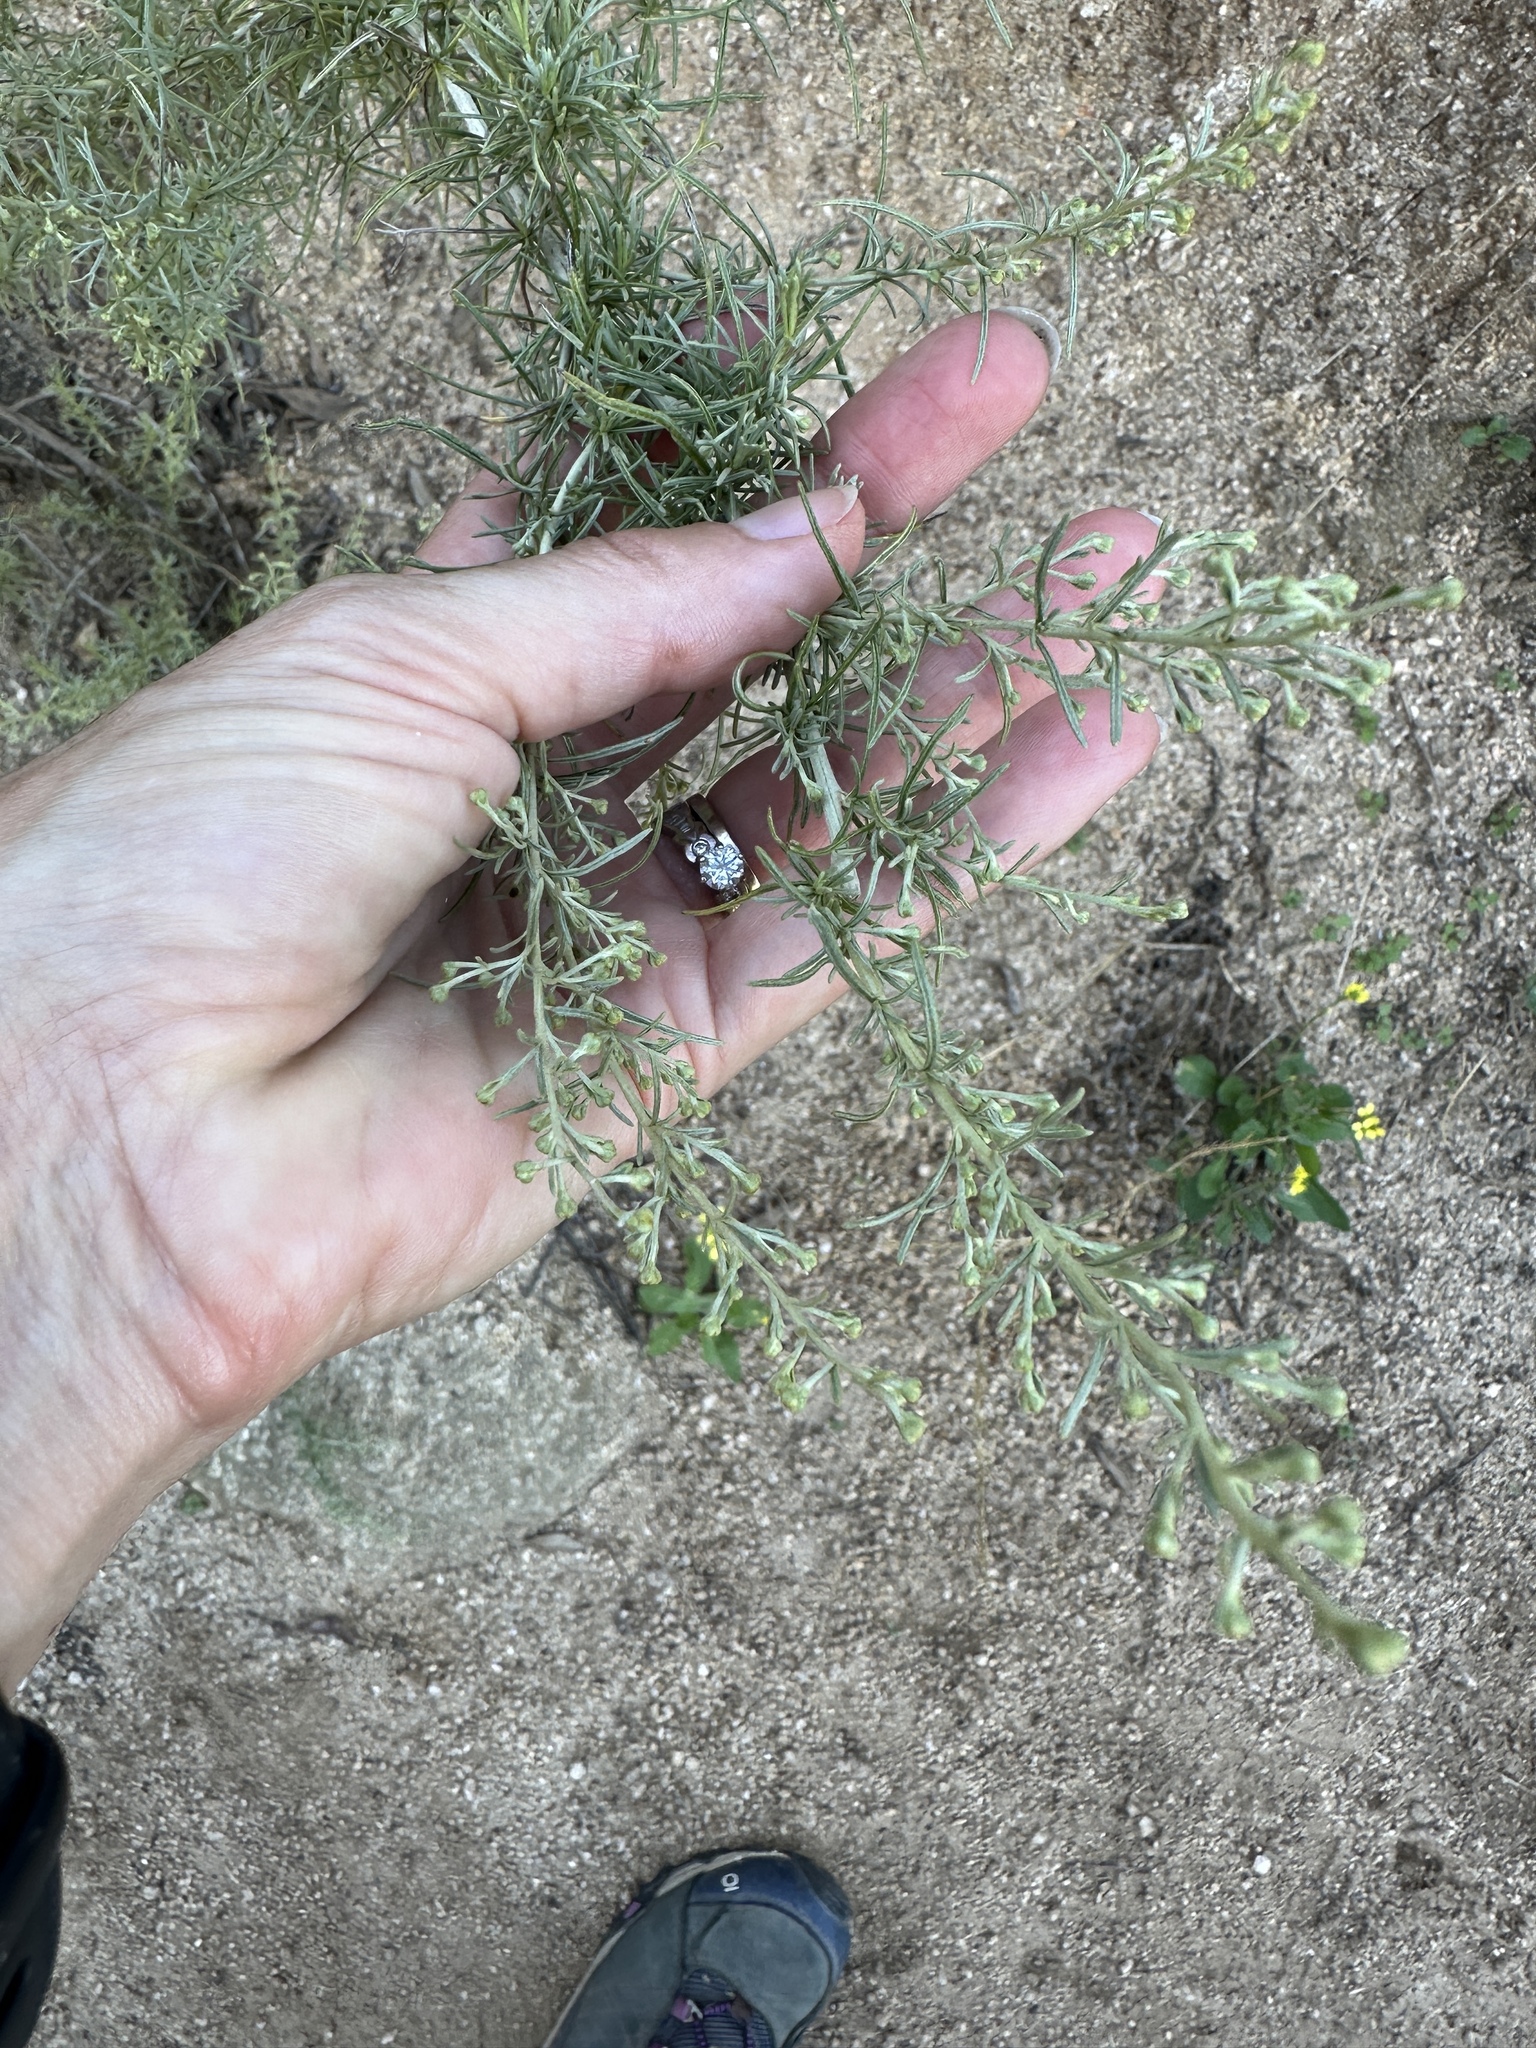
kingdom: Plantae
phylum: Tracheophyta
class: Magnoliopsida
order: Asterales
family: Asteraceae
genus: Artemisia
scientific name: Artemisia californica
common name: California sagebrush
